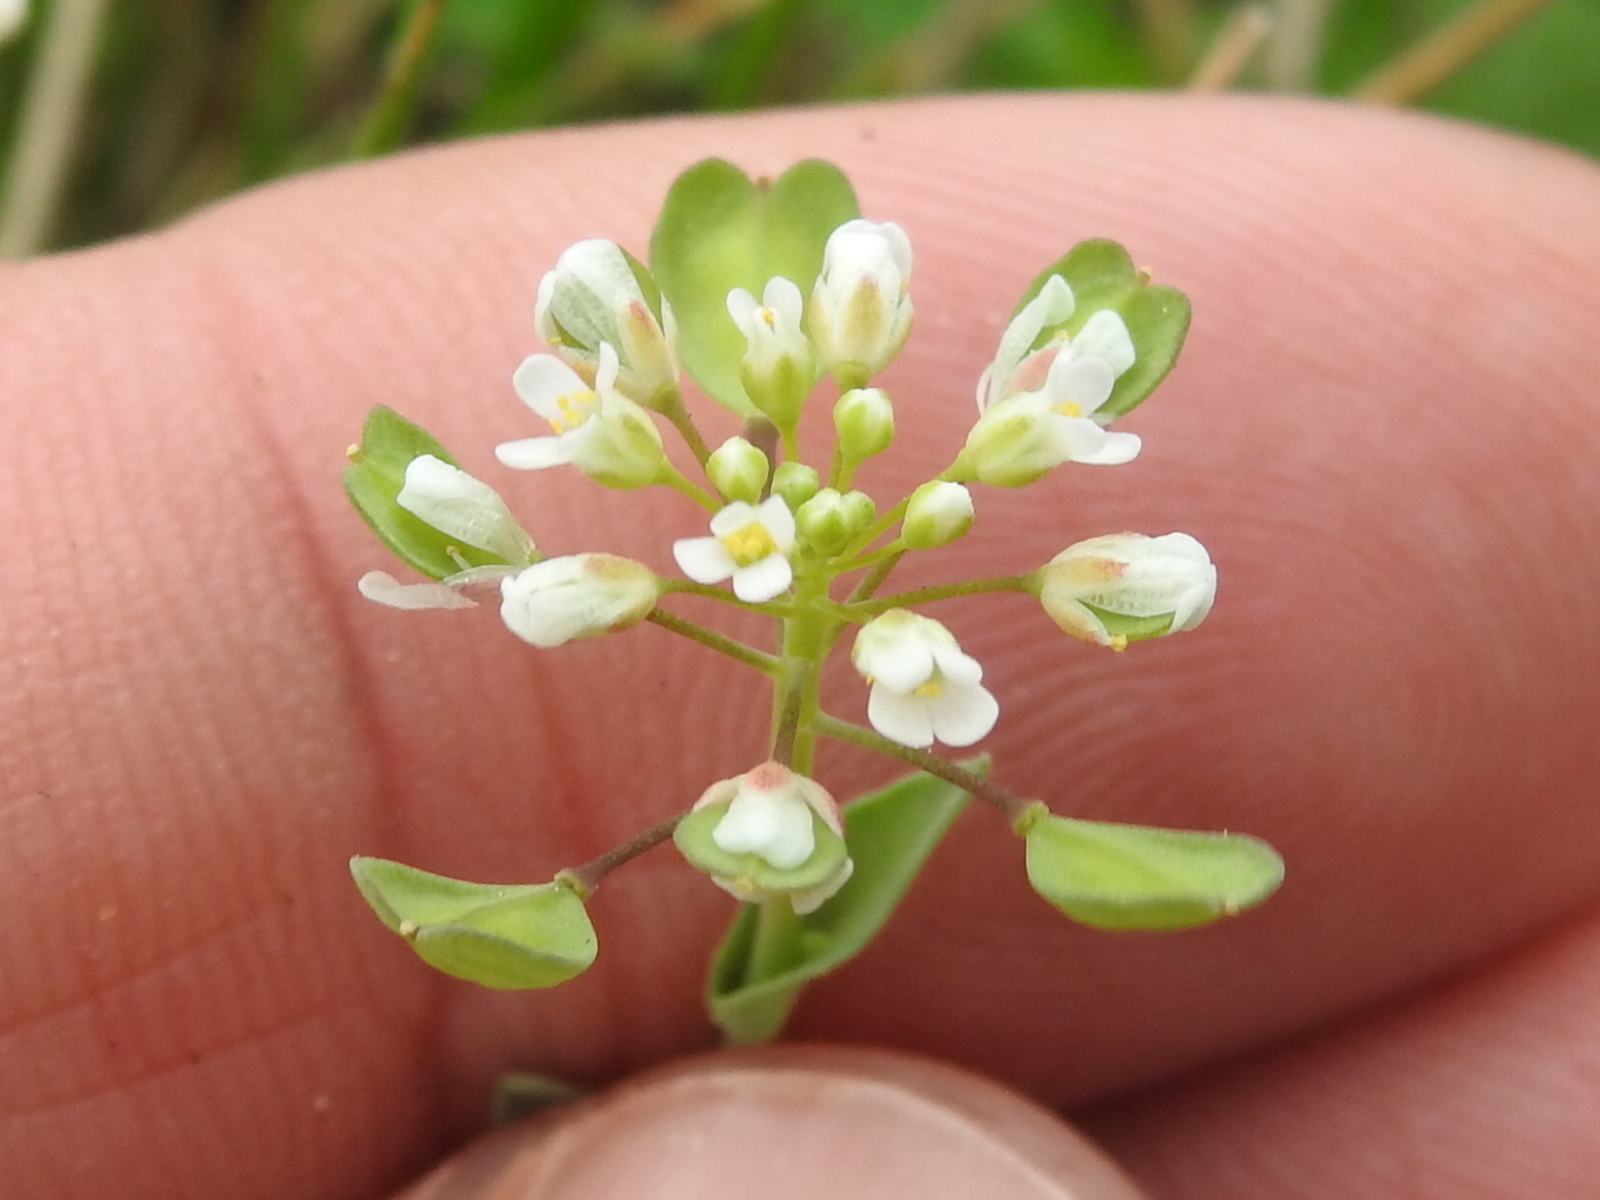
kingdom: Plantae
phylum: Tracheophyta
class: Magnoliopsida
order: Brassicales
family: Brassicaceae
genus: Noccaea
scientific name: Noccaea perfoliata
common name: Perfoliate pennycress
